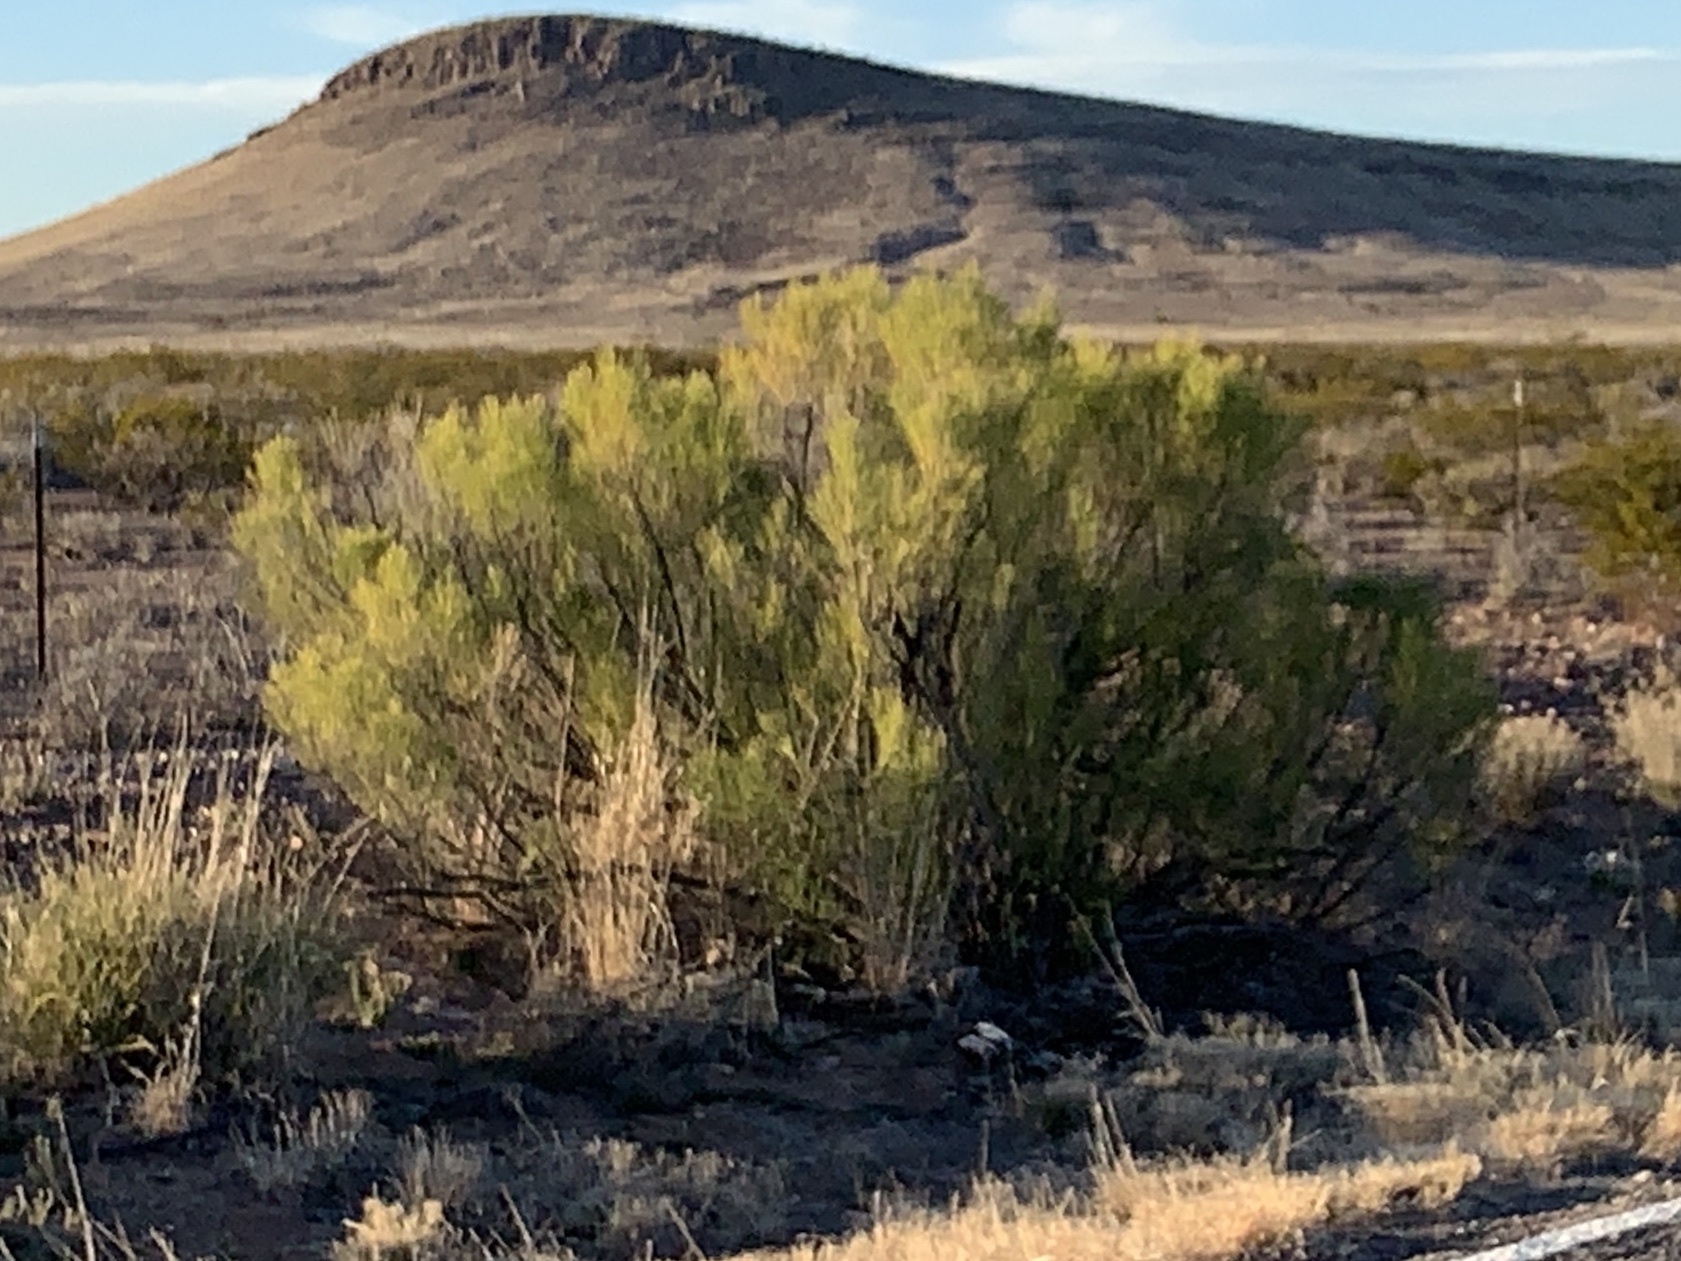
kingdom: Plantae
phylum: Tracheophyta
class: Magnoliopsida
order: Asterales
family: Asteraceae
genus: Baccharis
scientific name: Baccharis sarothroides
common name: Desert-broom
